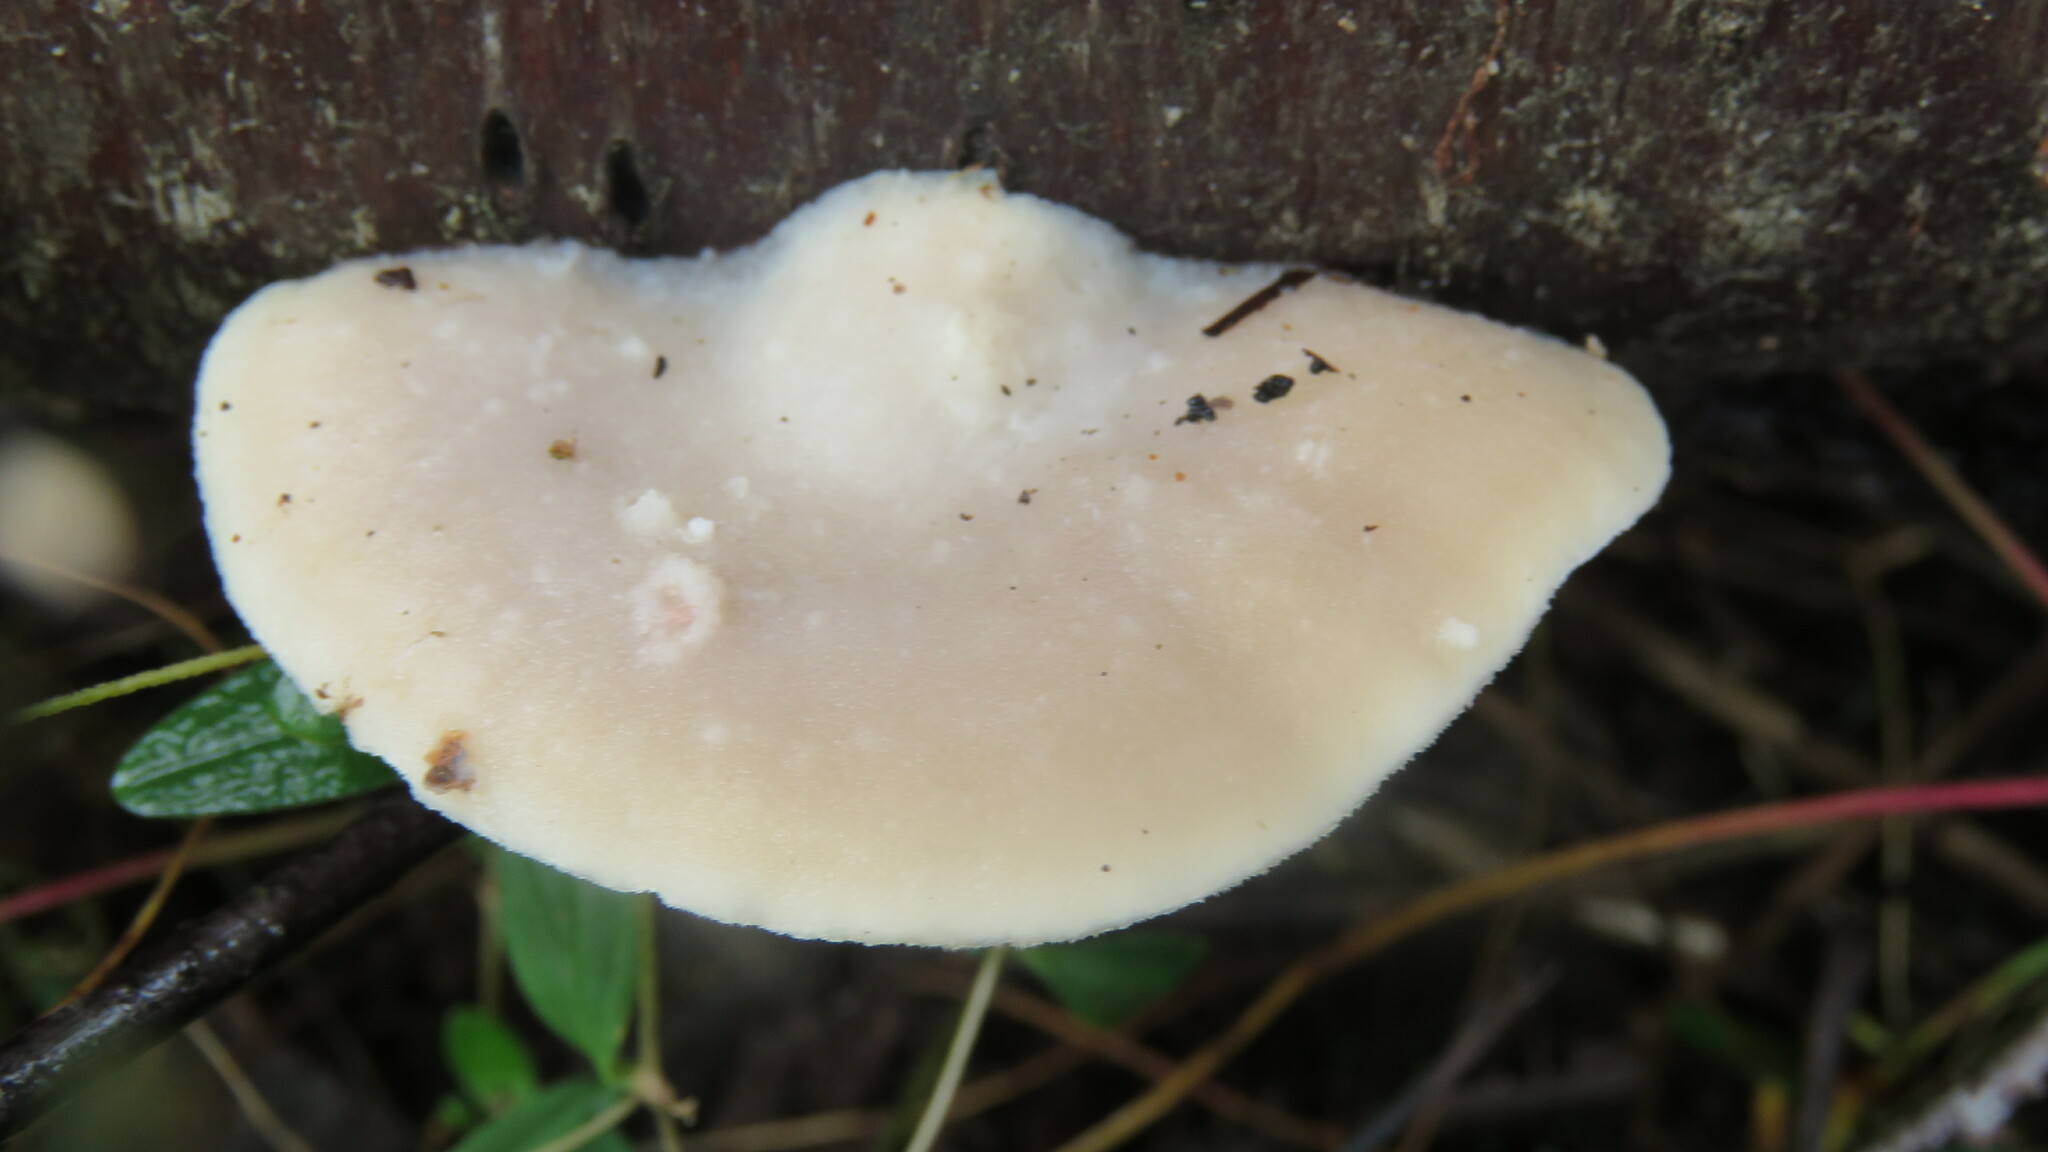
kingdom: Fungi
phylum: Basidiomycota
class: Agaricomycetes
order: Polyporales
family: Incrustoporiaceae
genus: Tyromyces
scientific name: Tyromyces chioneus
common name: White cheese polypore
